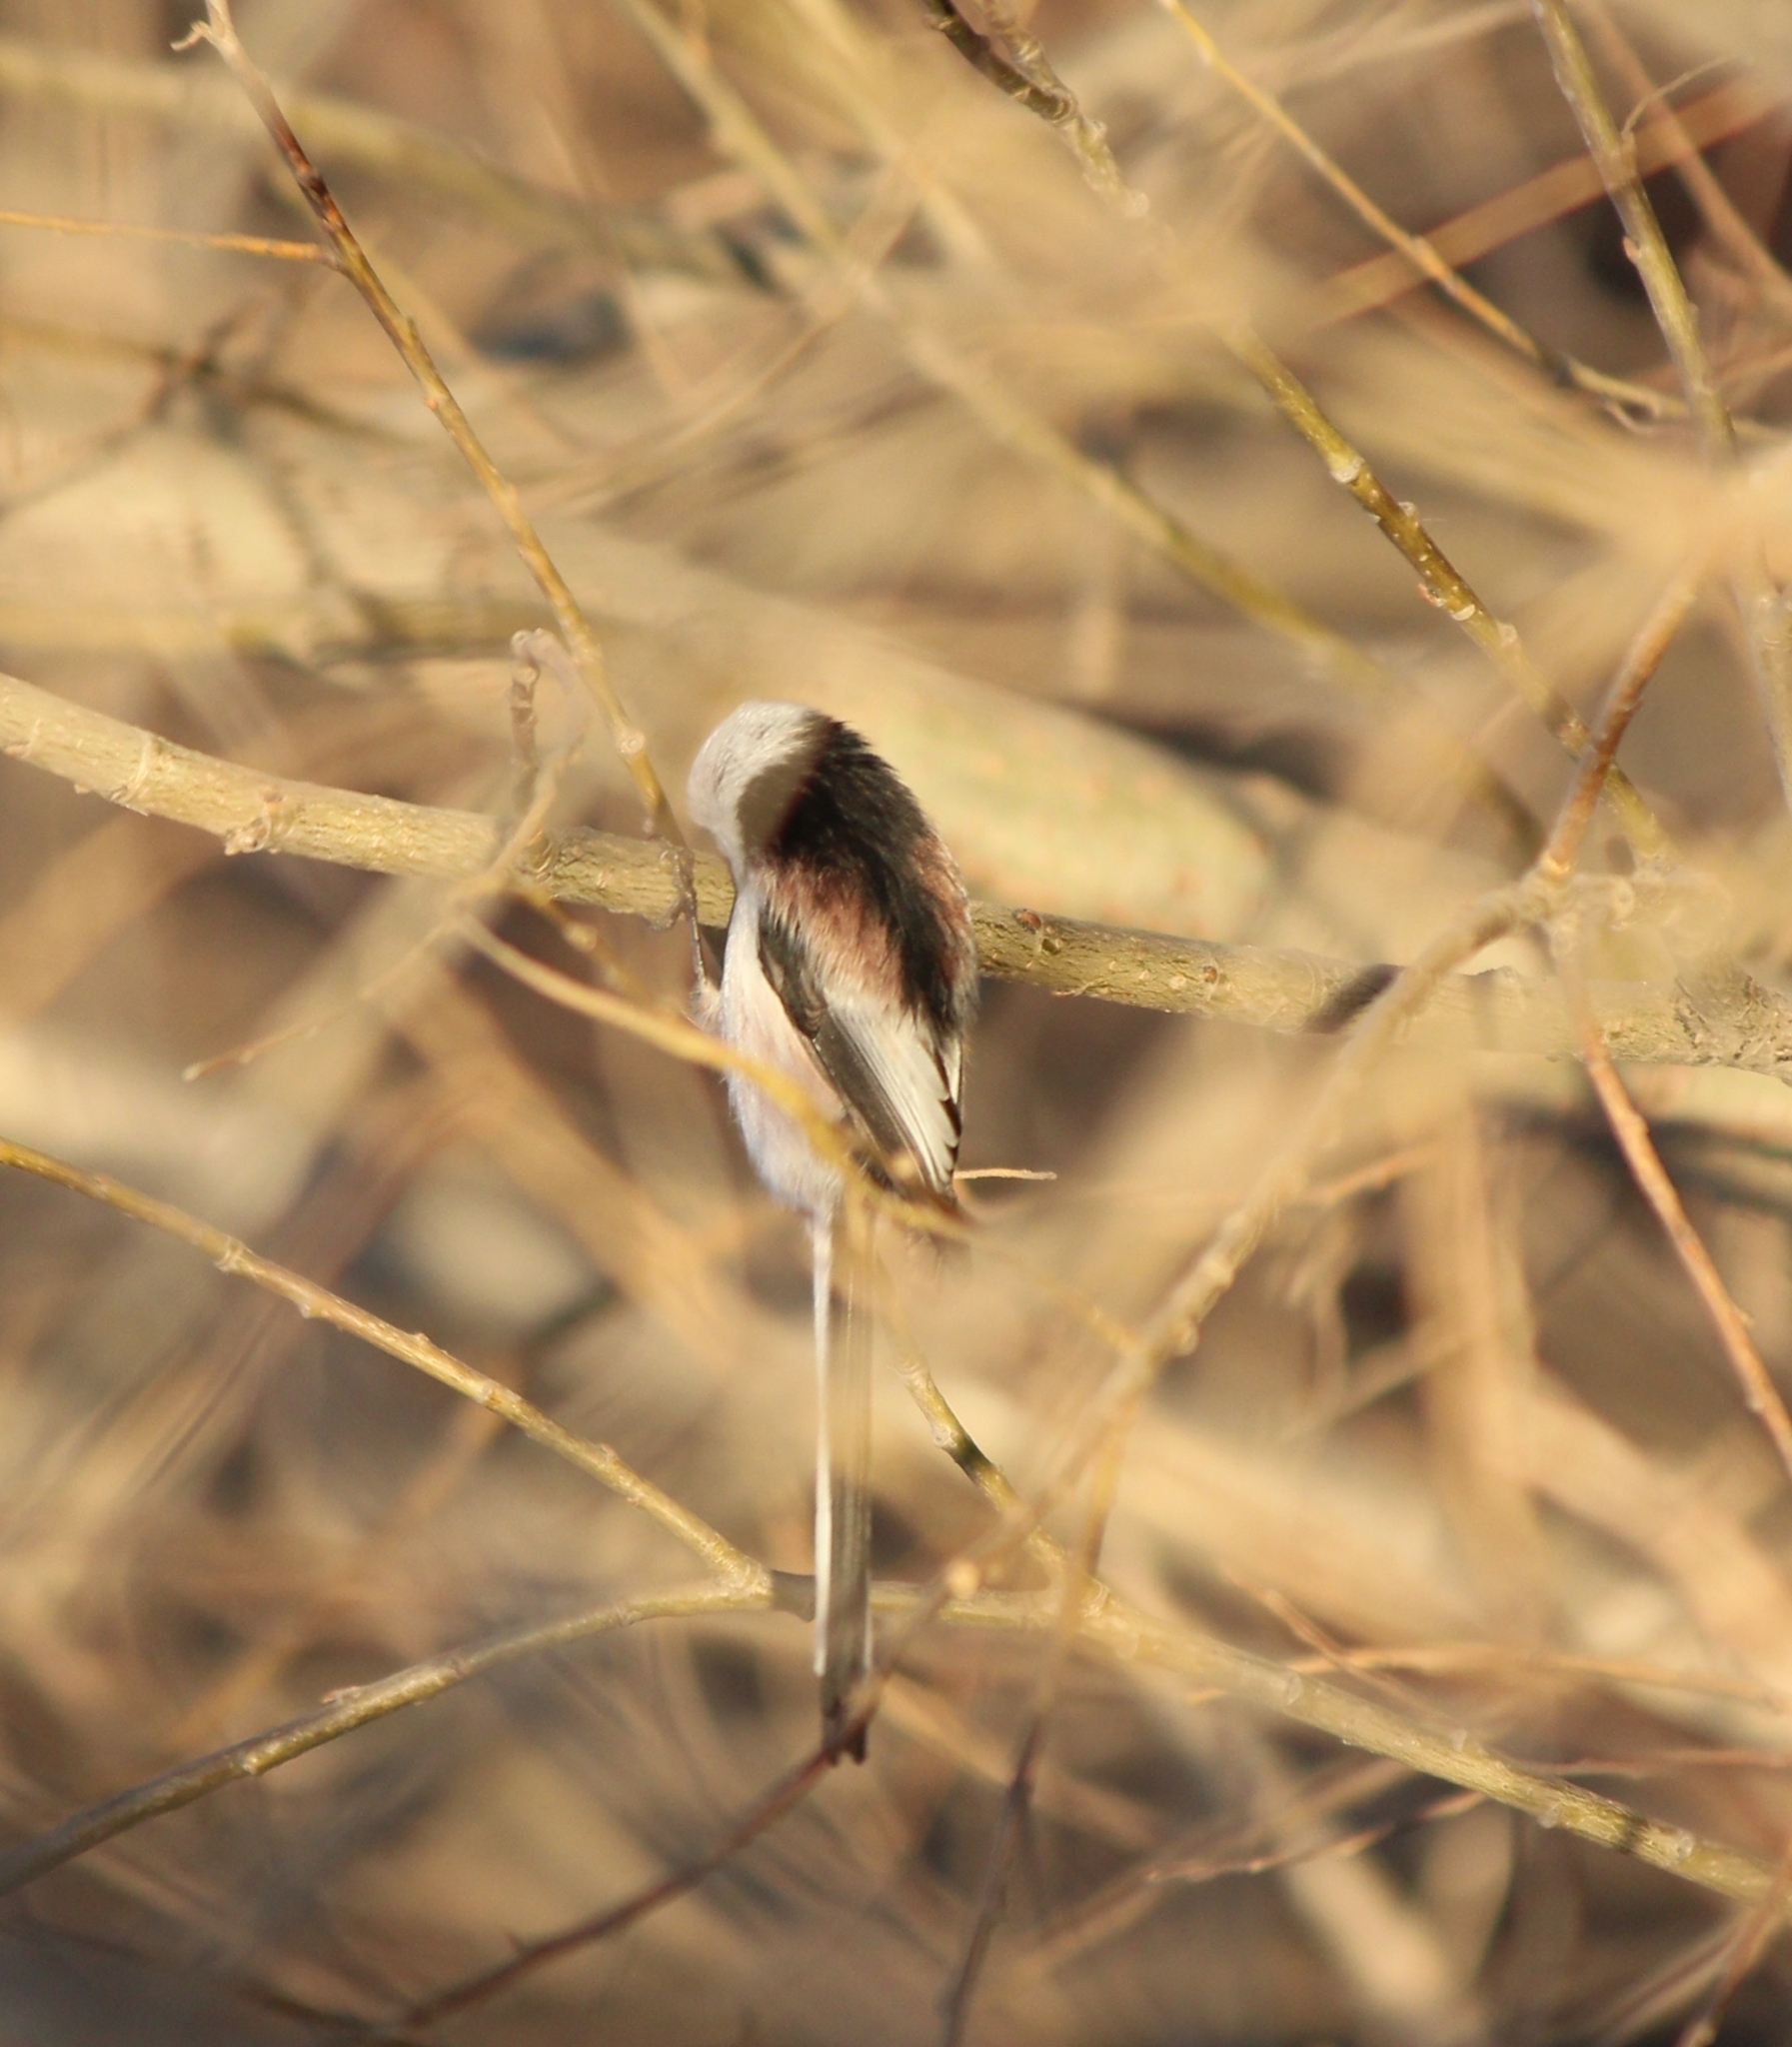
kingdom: Animalia
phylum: Chordata
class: Aves
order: Passeriformes
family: Aegithalidae
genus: Aegithalos
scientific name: Aegithalos caudatus
